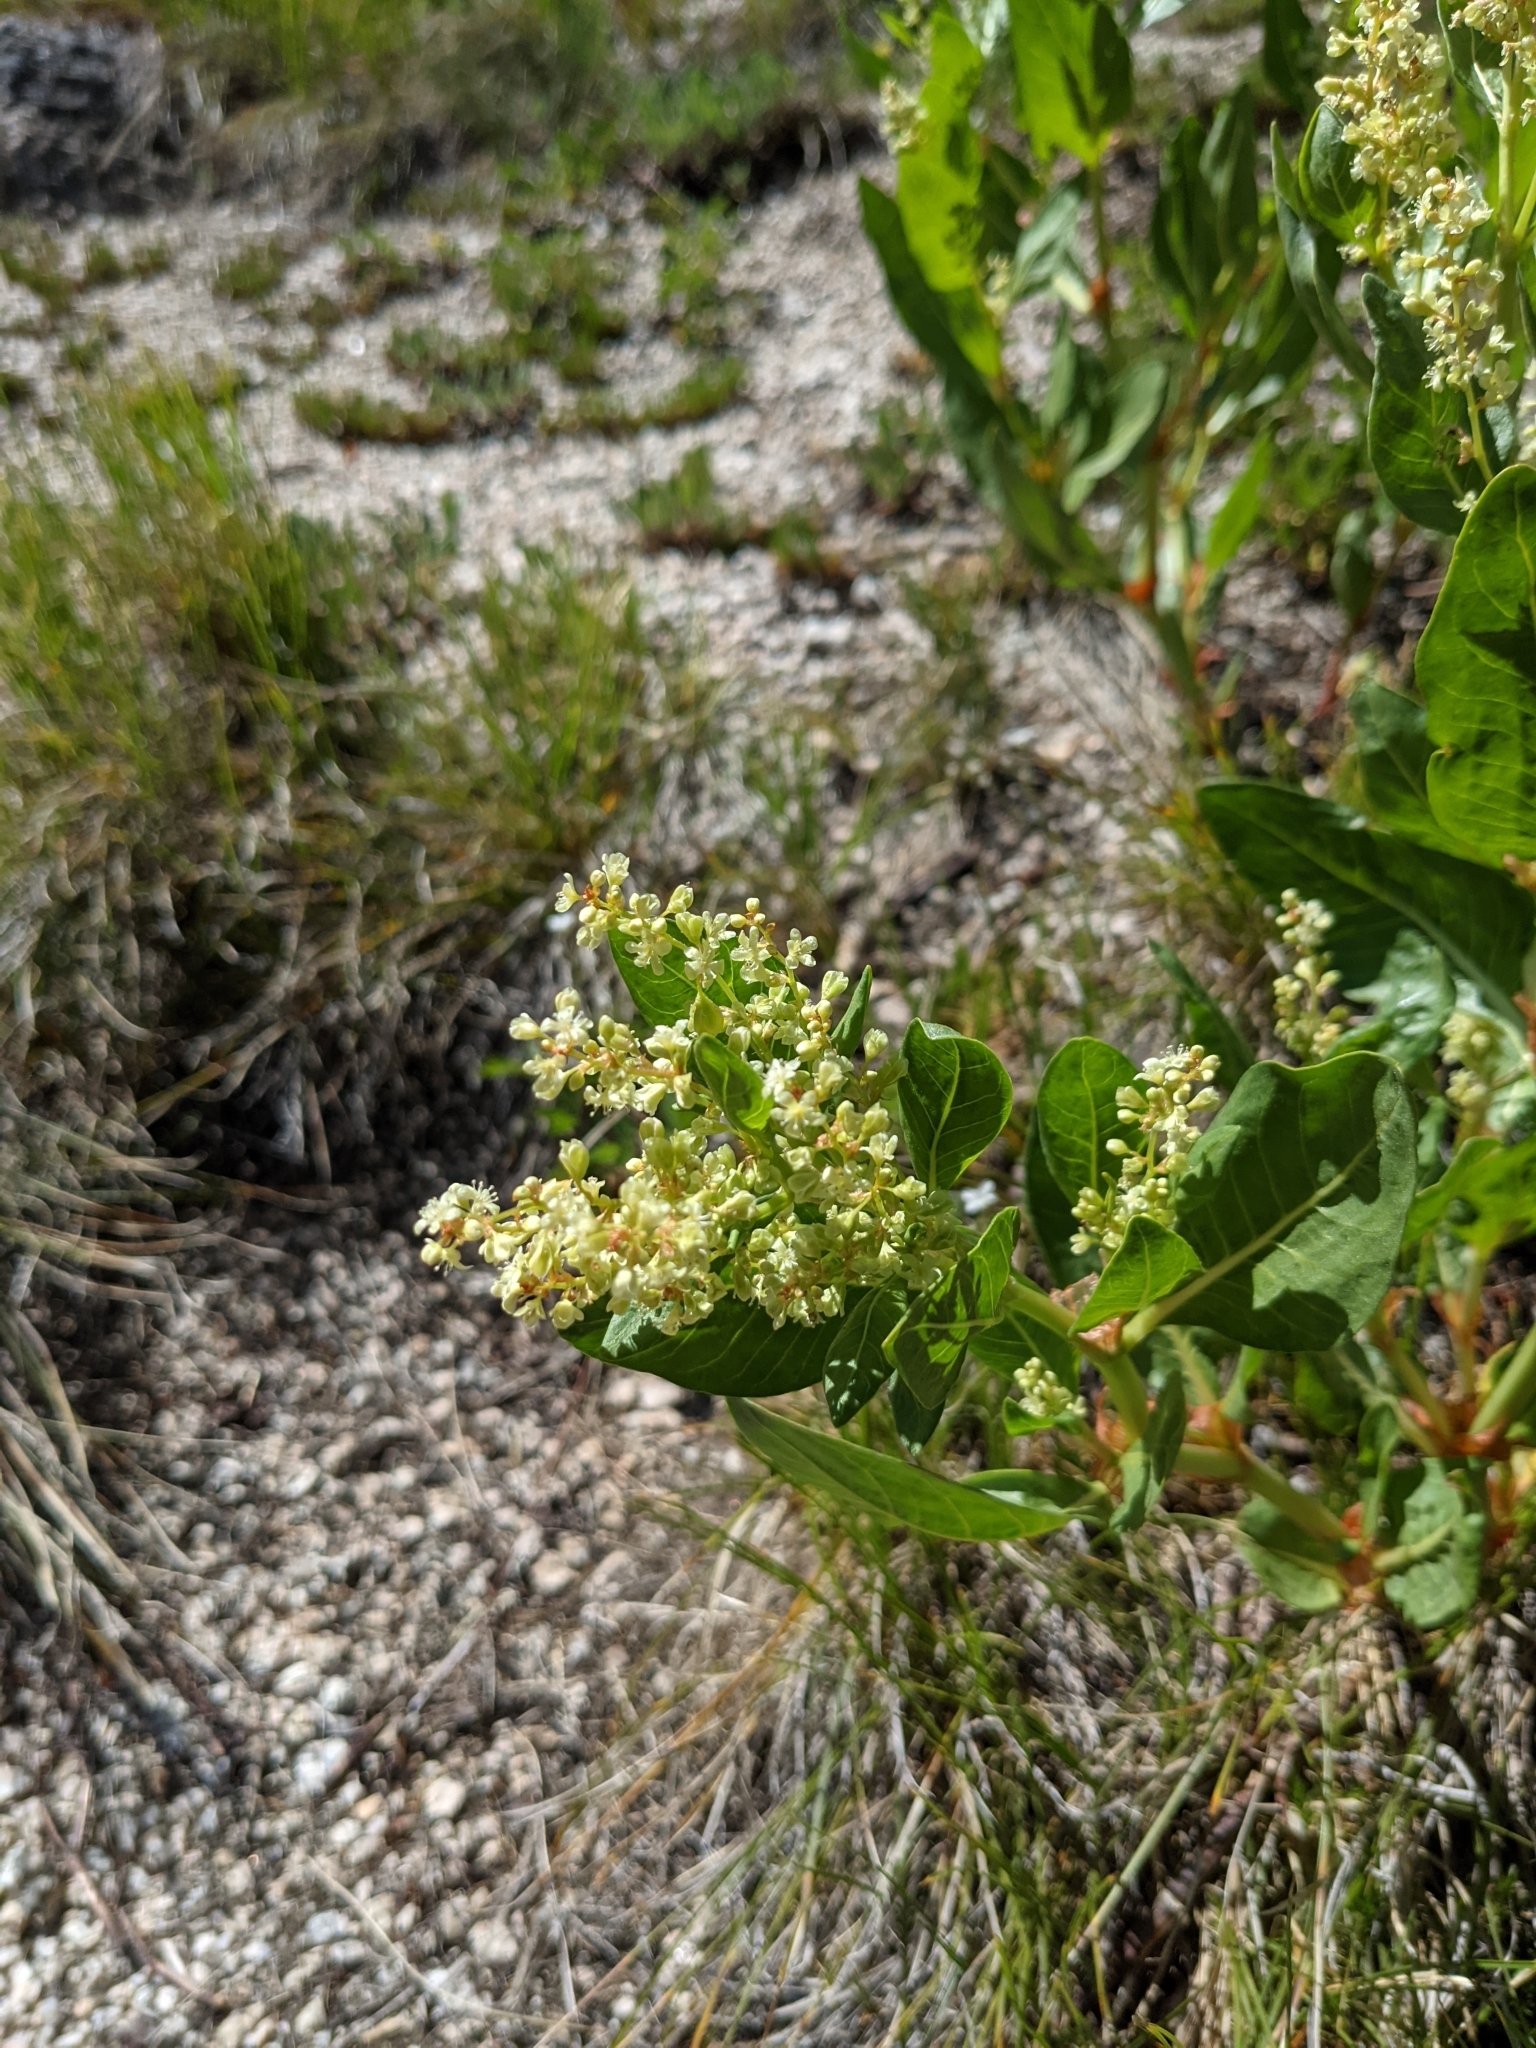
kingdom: Plantae
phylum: Tracheophyta
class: Magnoliopsida
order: Caryophyllales
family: Polygonaceae
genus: Koenigia
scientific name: Koenigia phytolaccifolia
